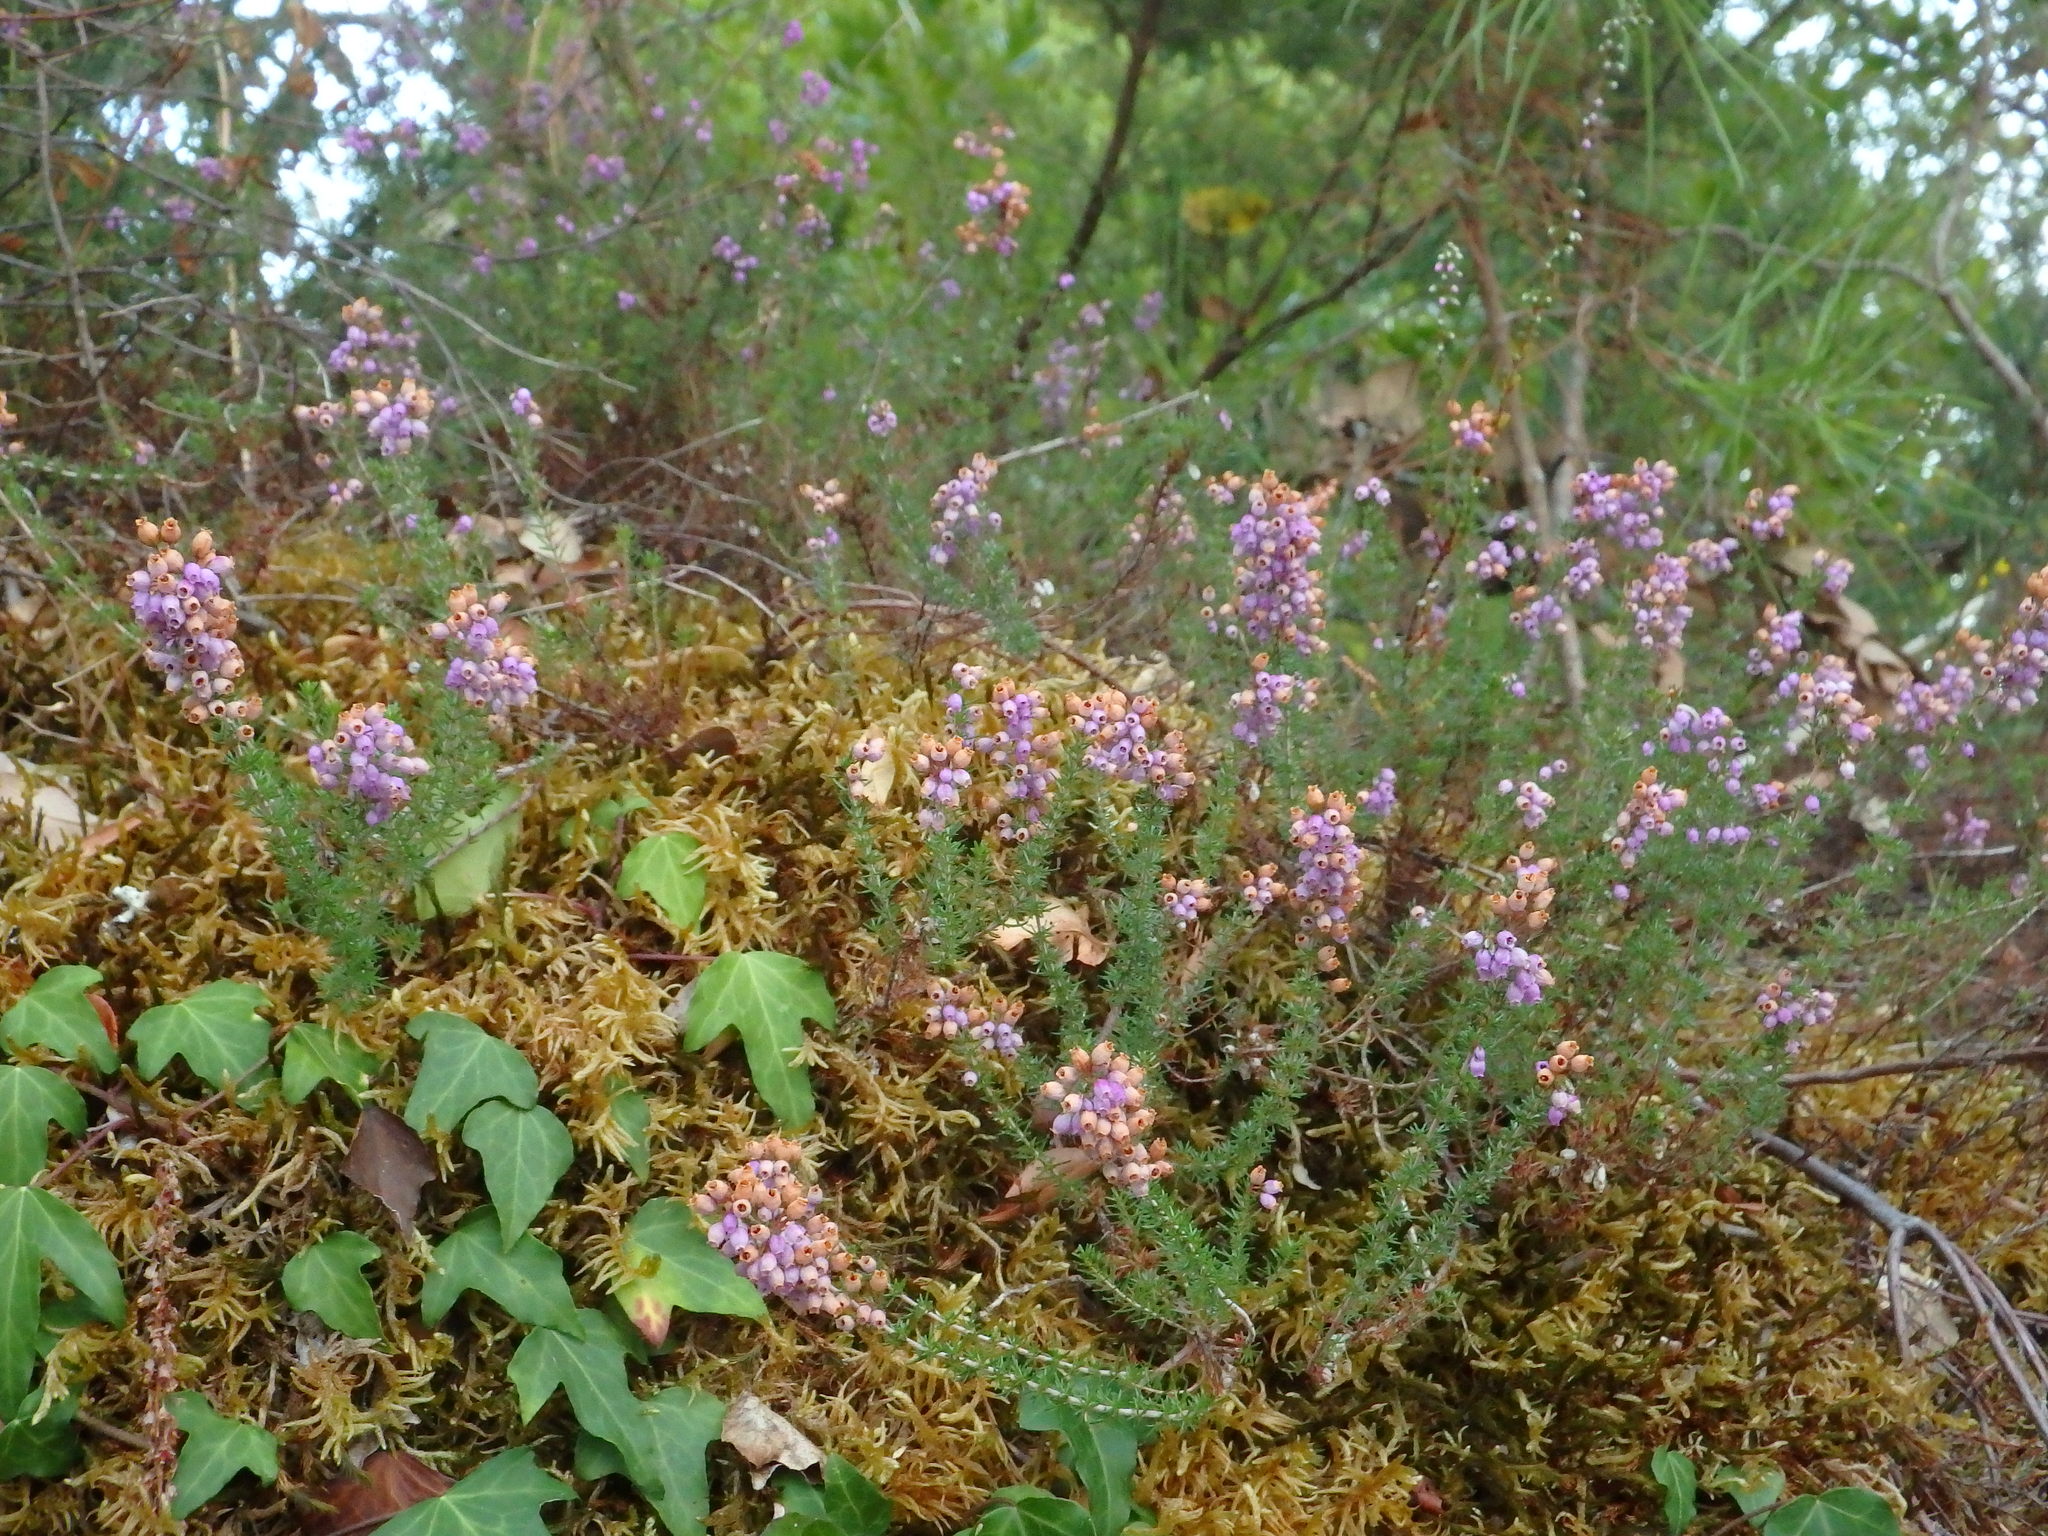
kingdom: Plantae
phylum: Tracheophyta
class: Magnoliopsida
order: Ericales
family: Ericaceae
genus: Erica
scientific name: Erica cinerea
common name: Bell heather
